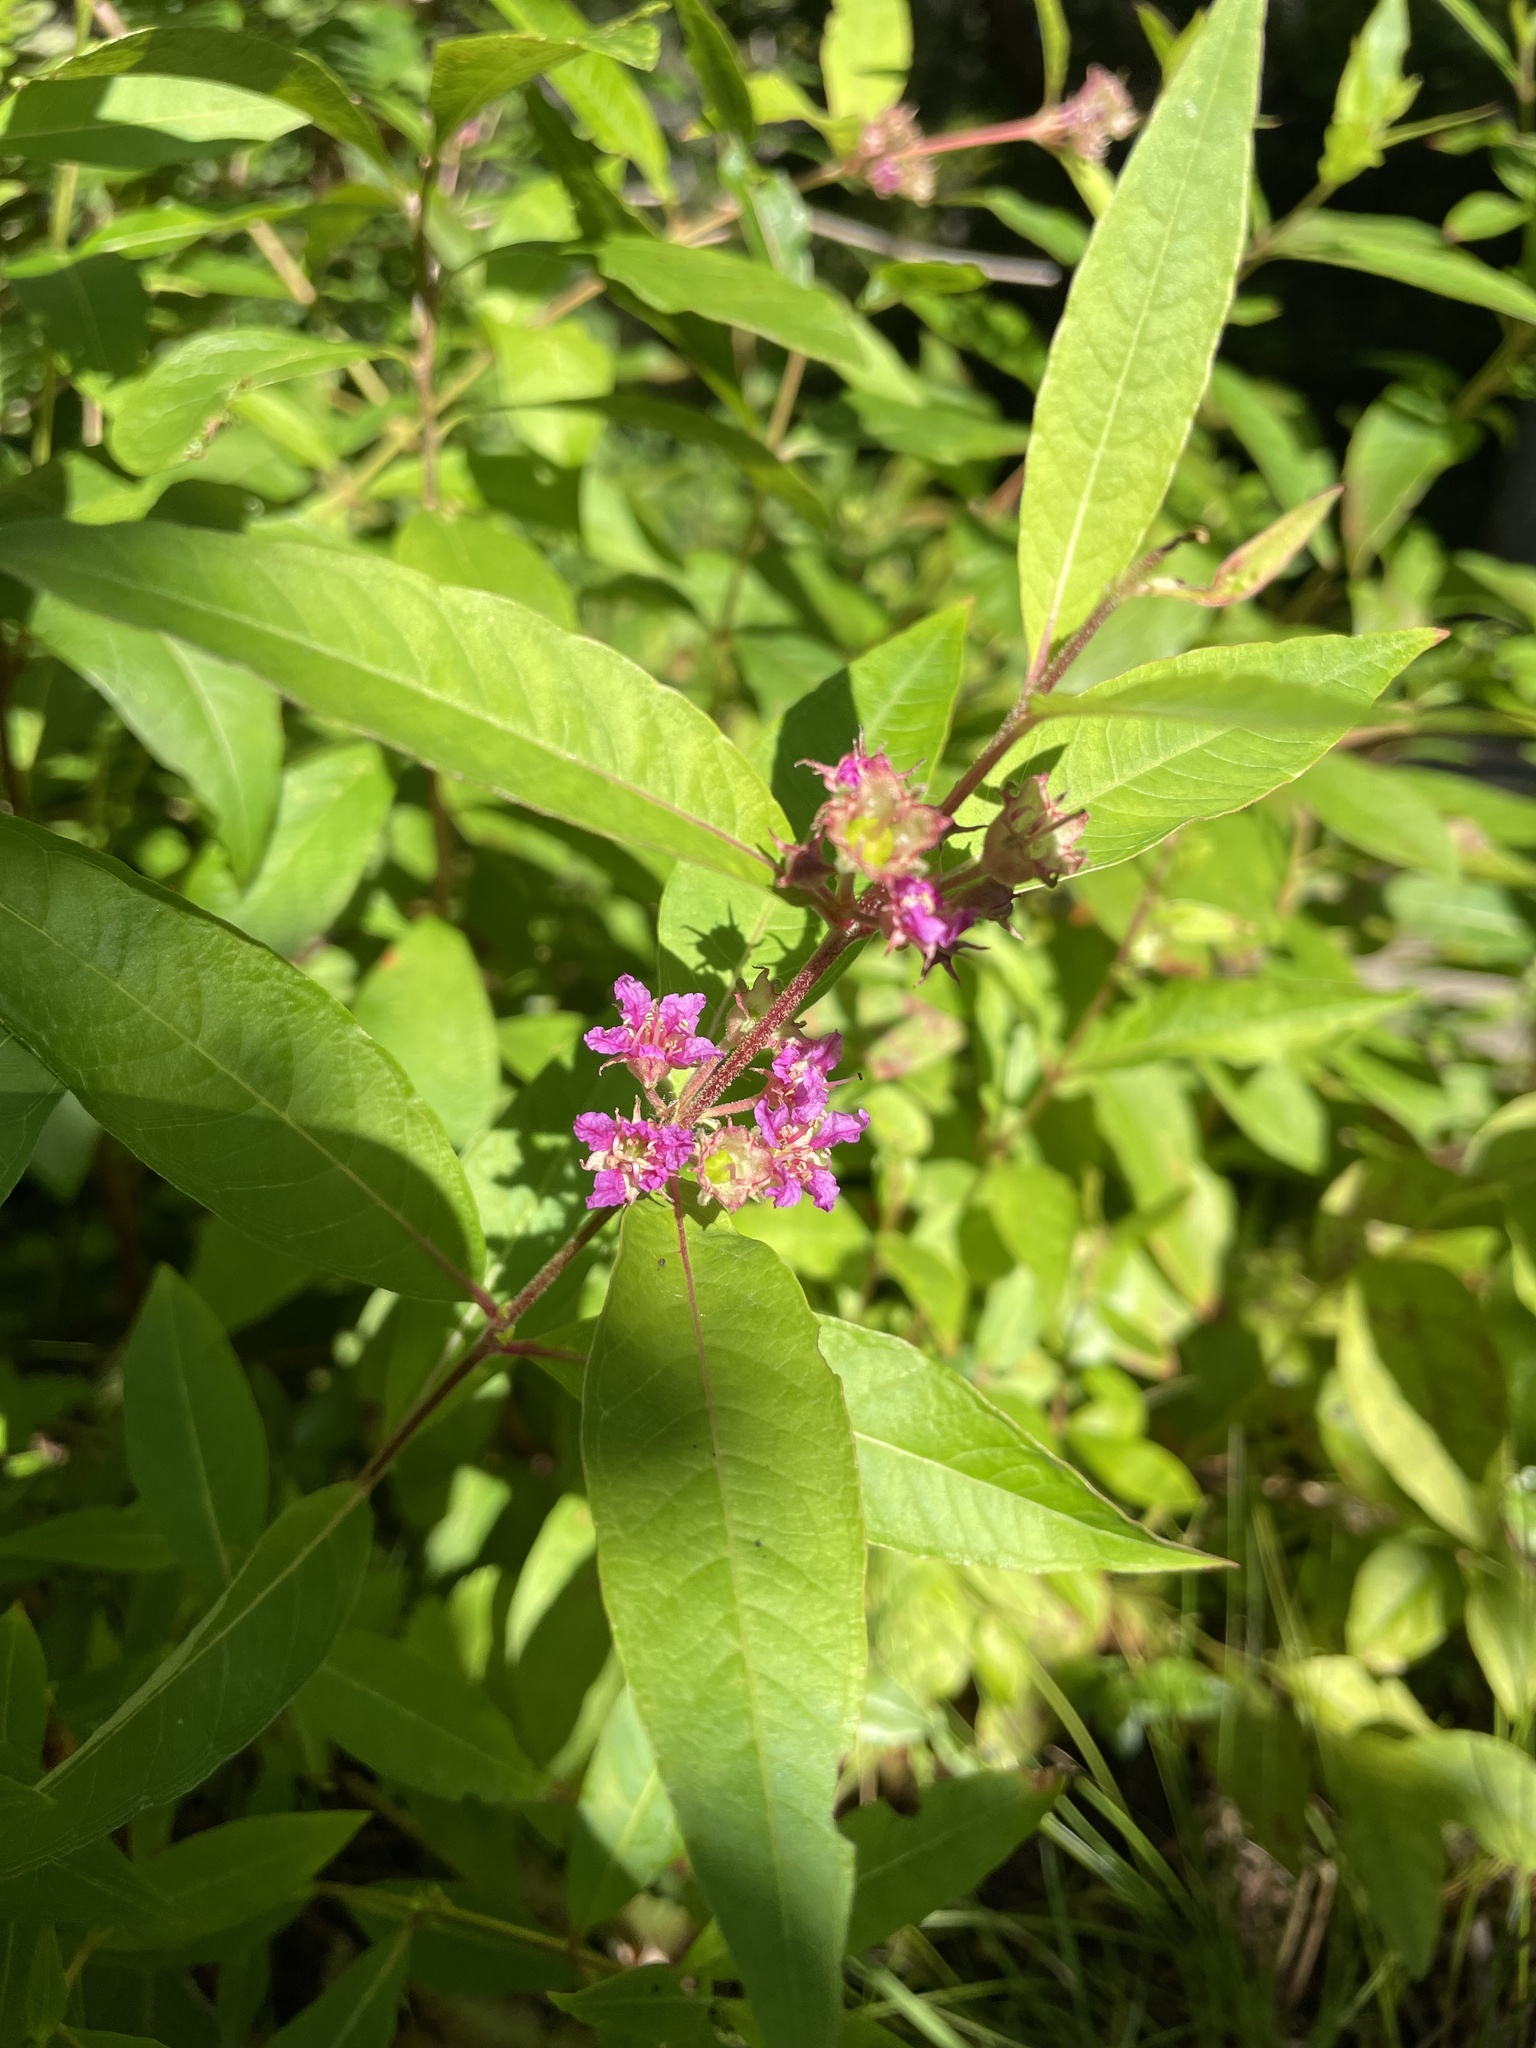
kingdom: Plantae
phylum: Tracheophyta
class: Magnoliopsida
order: Myrtales
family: Lythraceae
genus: Decodon
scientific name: Decodon verticillatus
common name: Hairy swamp loosestrife
